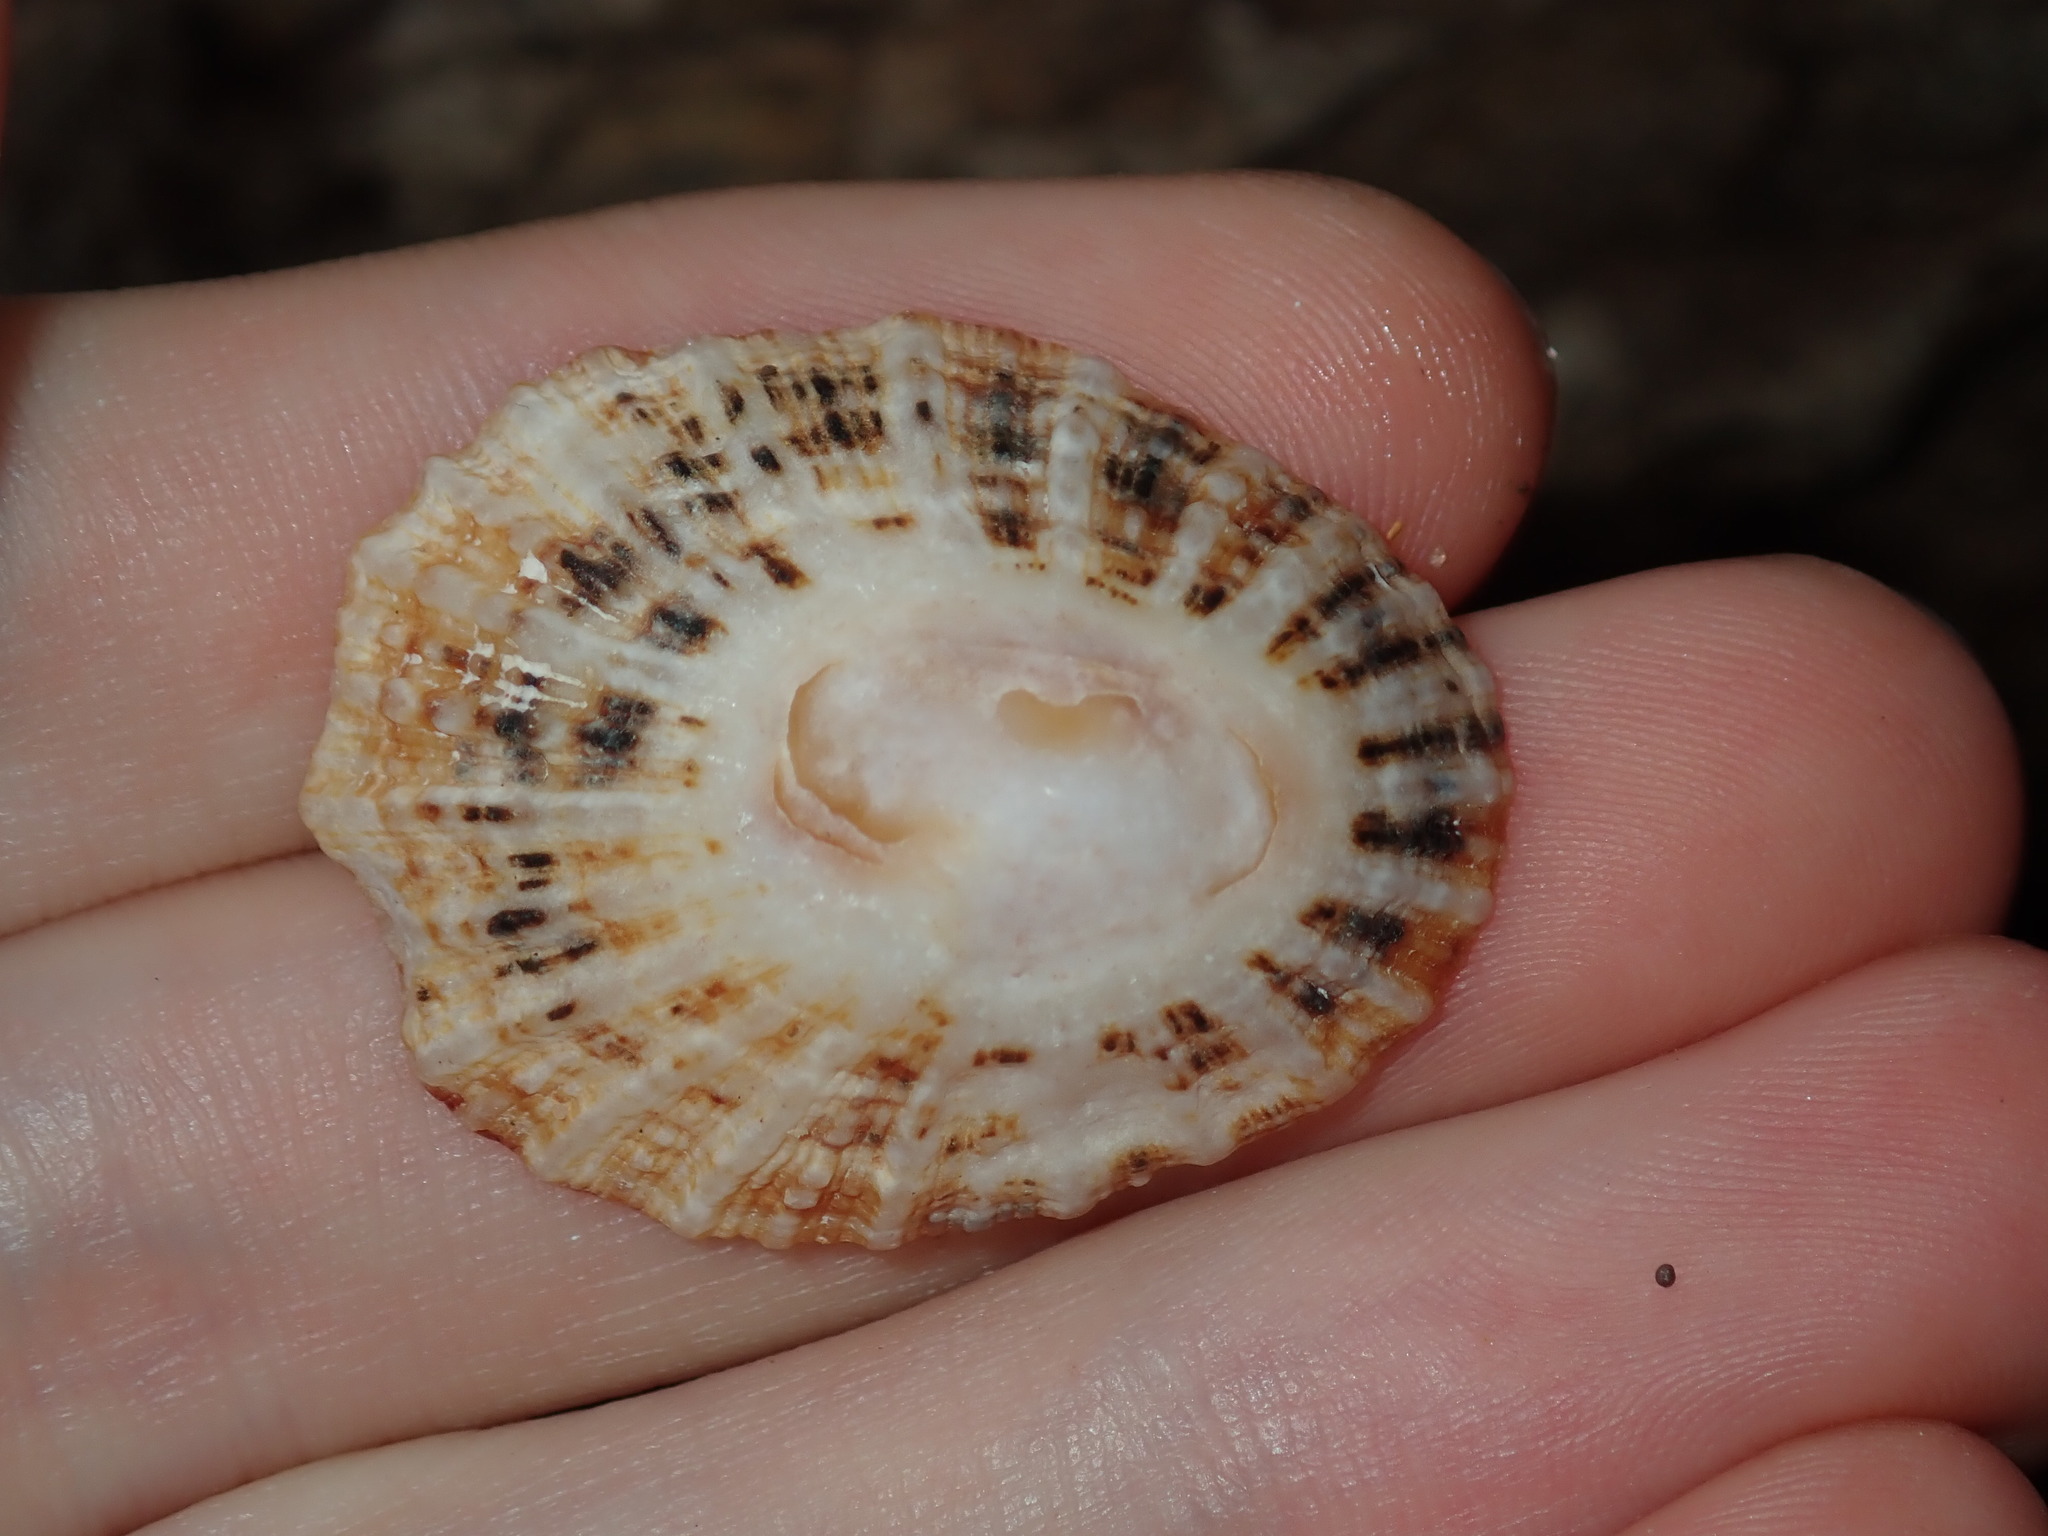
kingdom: Animalia
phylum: Mollusca
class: Gastropoda
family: Patellidae
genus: Scutellastra
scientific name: Scutellastra peronii
